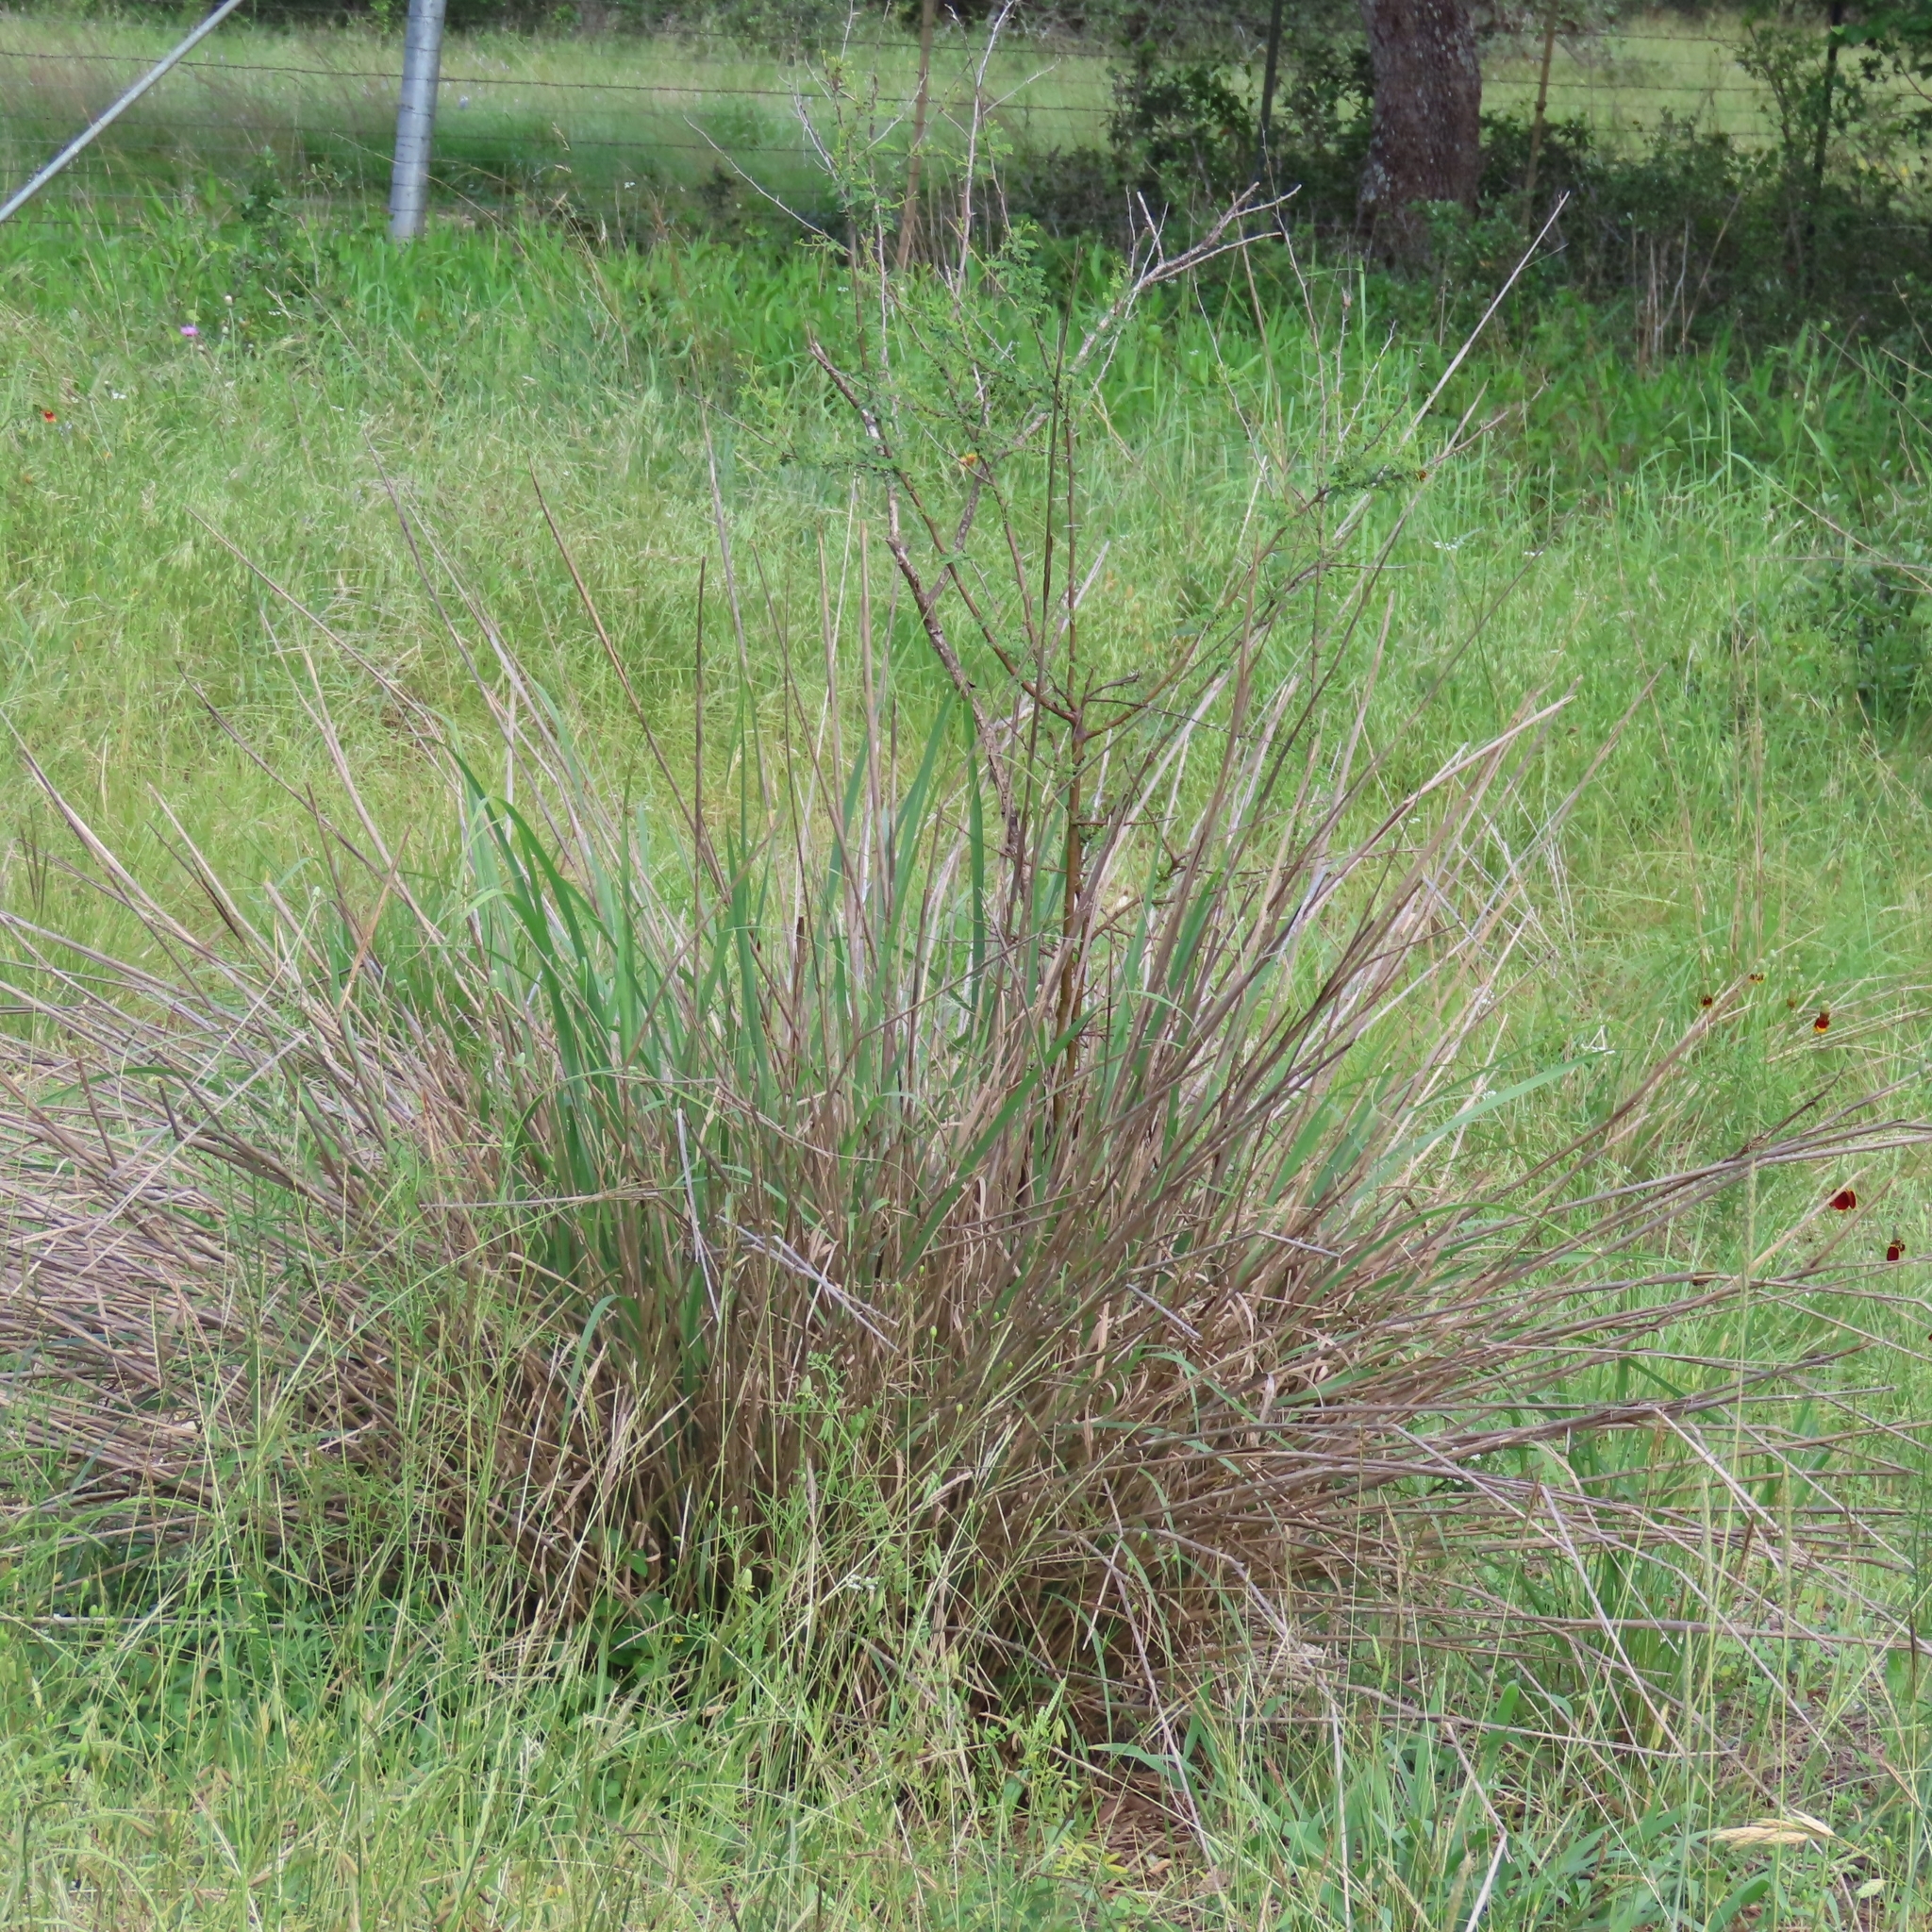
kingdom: Plantae
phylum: Tracheophyta
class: Liliopsida
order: Poales
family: Poaceae
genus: Panicum
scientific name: Panicum virgatum
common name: Switchgrass
